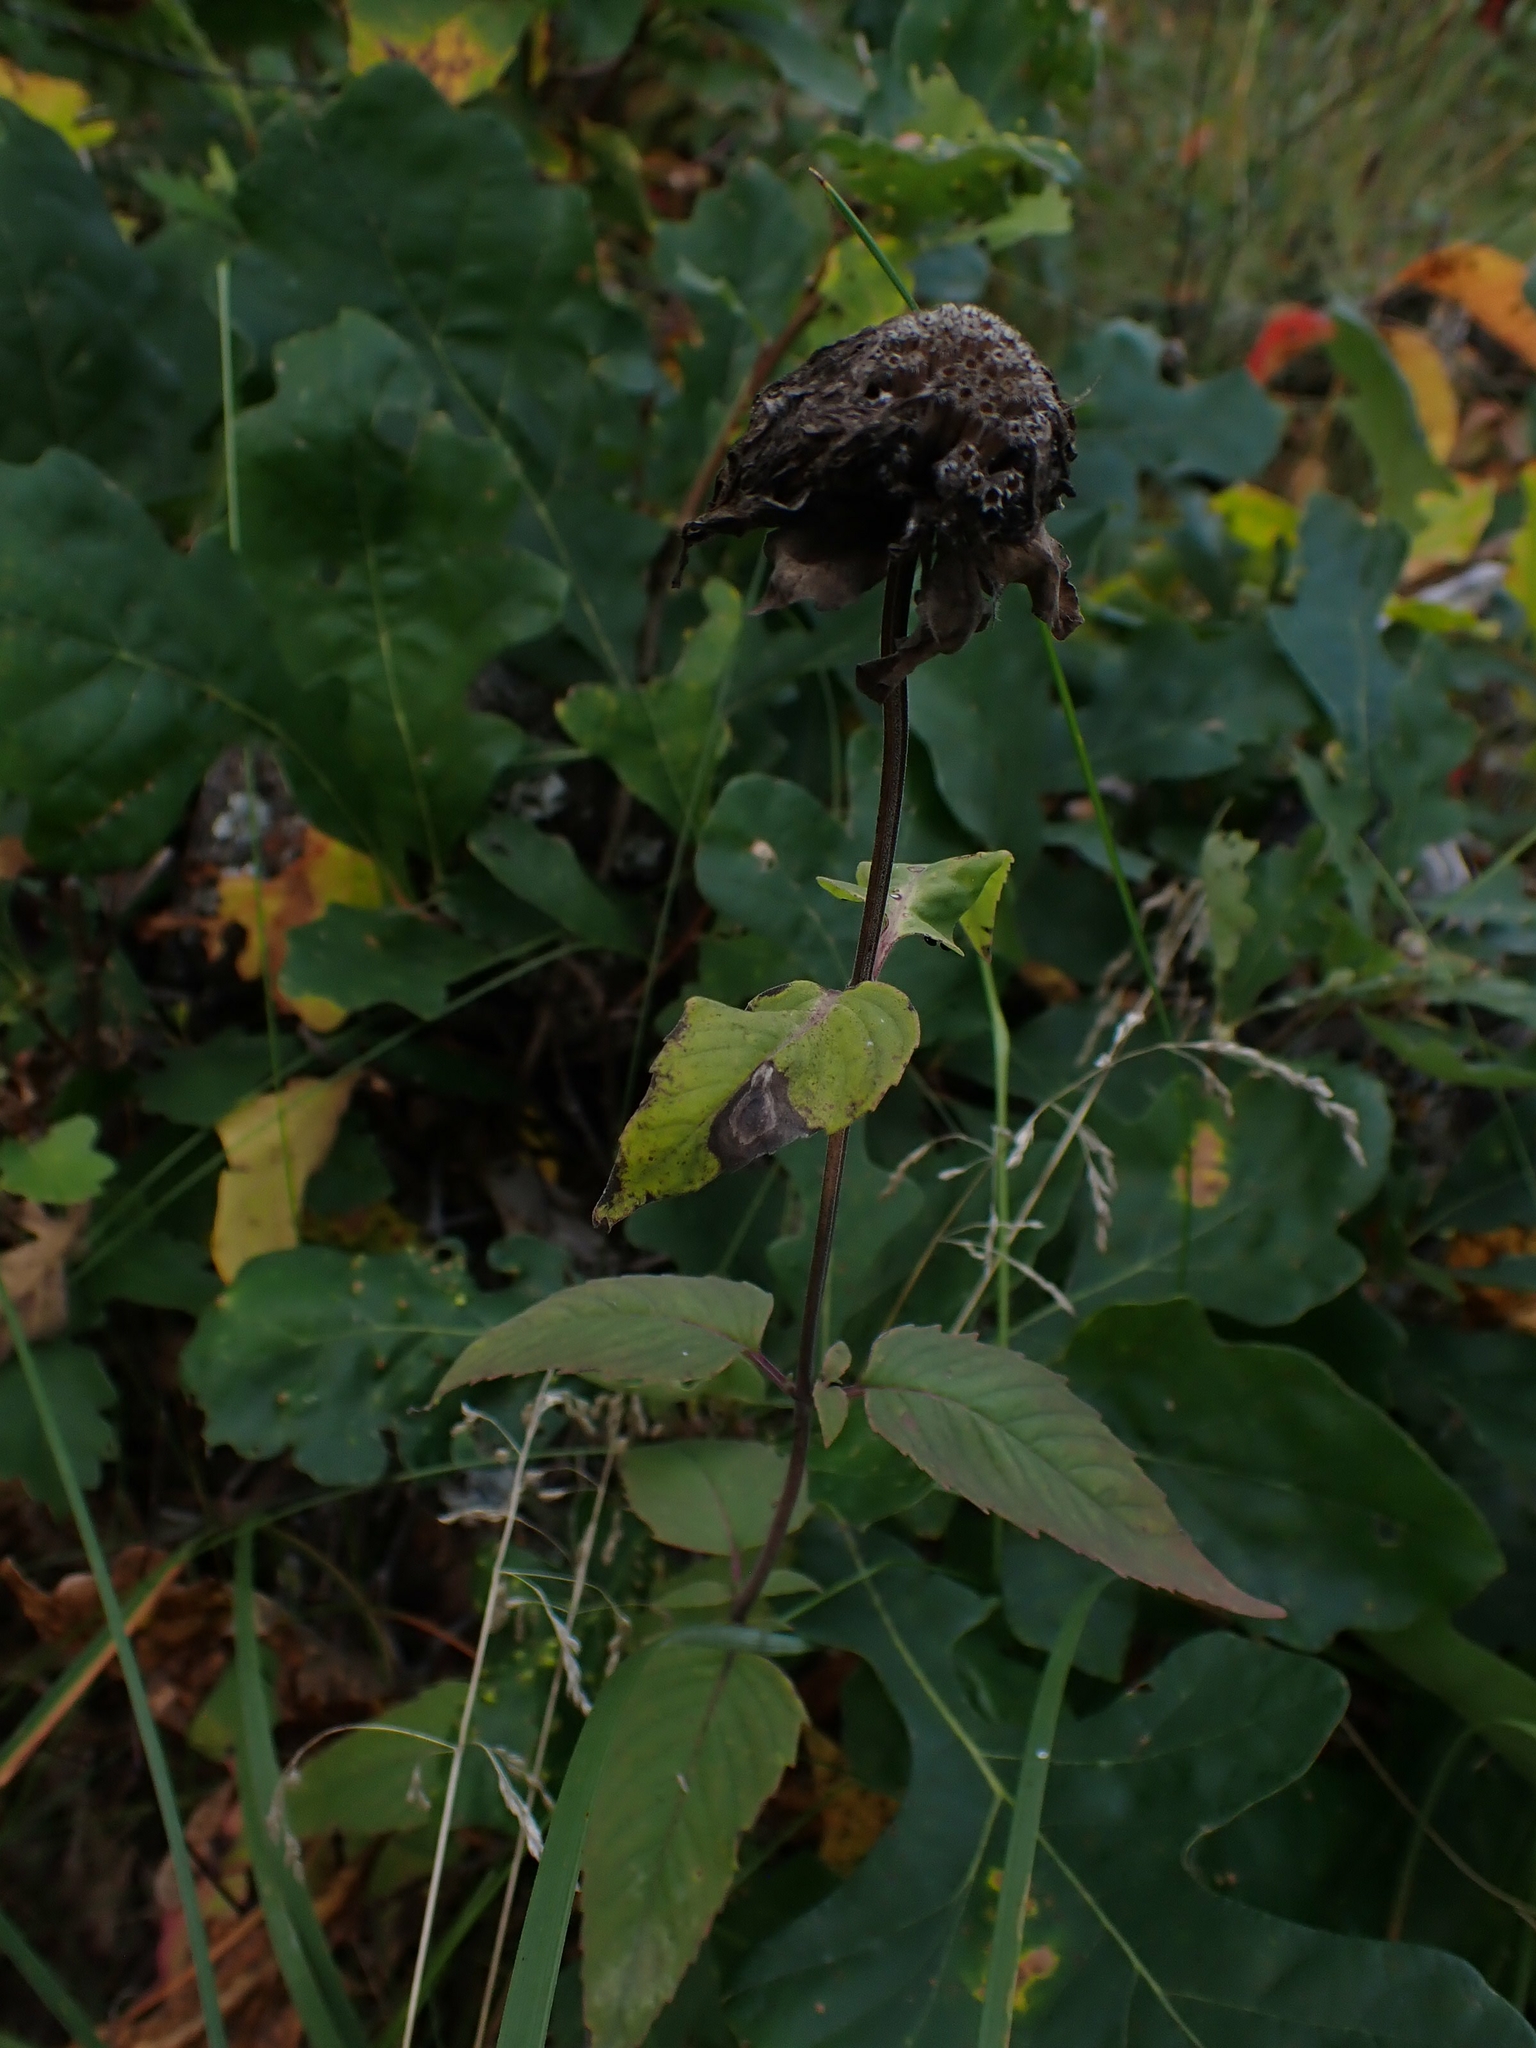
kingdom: Plantae
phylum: Tracheophyta
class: Magnoliopsida
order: Lamiales
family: Lamiaceae
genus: Monarda
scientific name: Monarda fistulosa
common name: Purple beebalm
